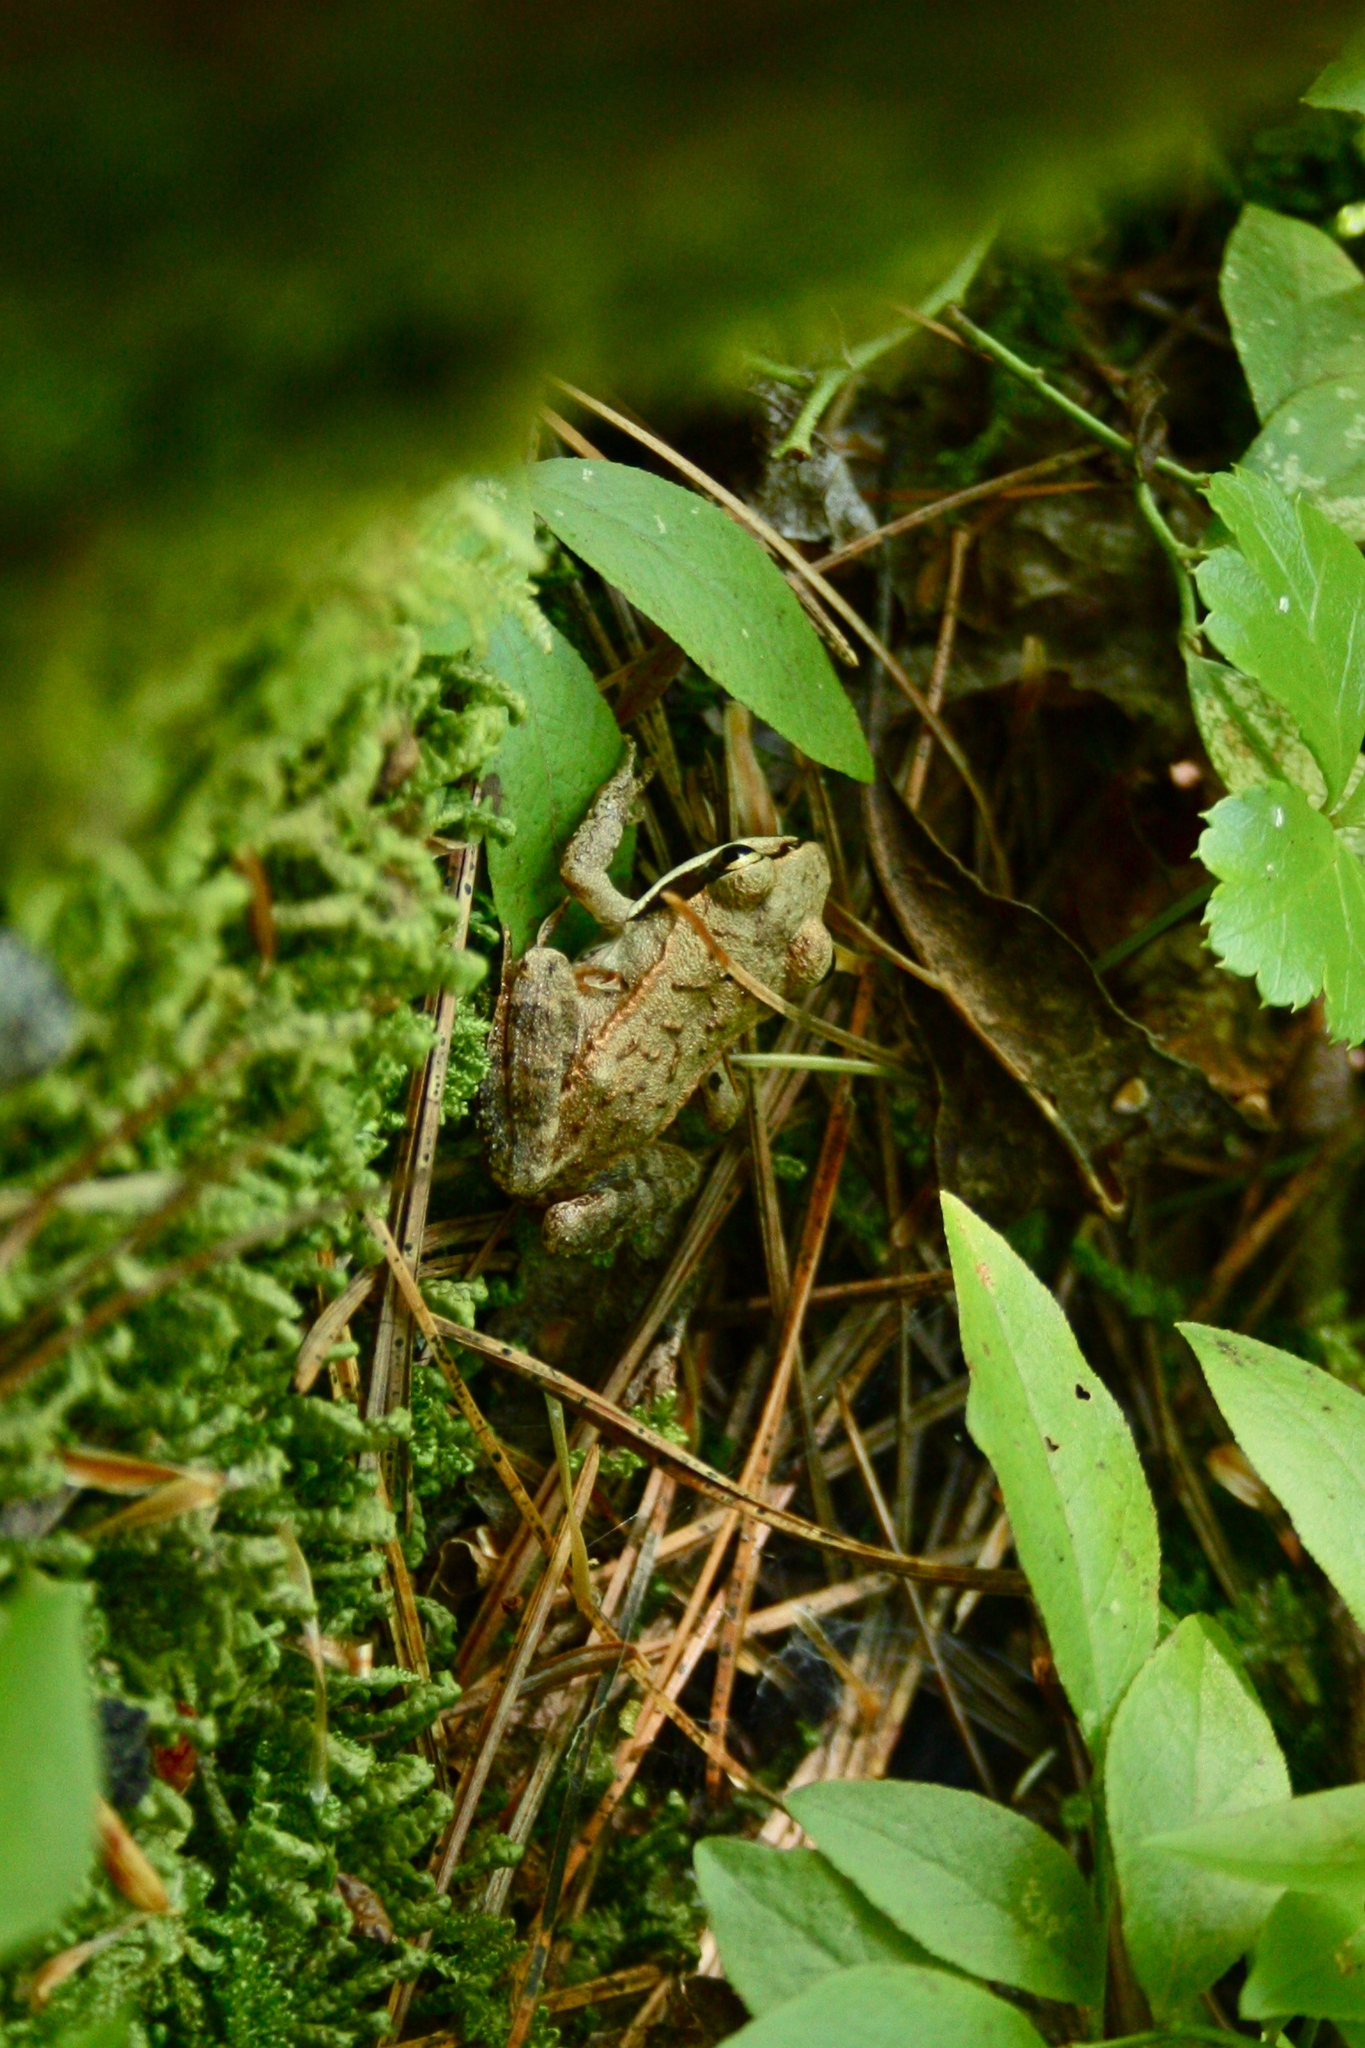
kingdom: Animalia
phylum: Chordata
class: Amphibia
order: Anura
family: Ranidae
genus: Lithobates
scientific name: Lithobates sylvaticus
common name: Wood frog
